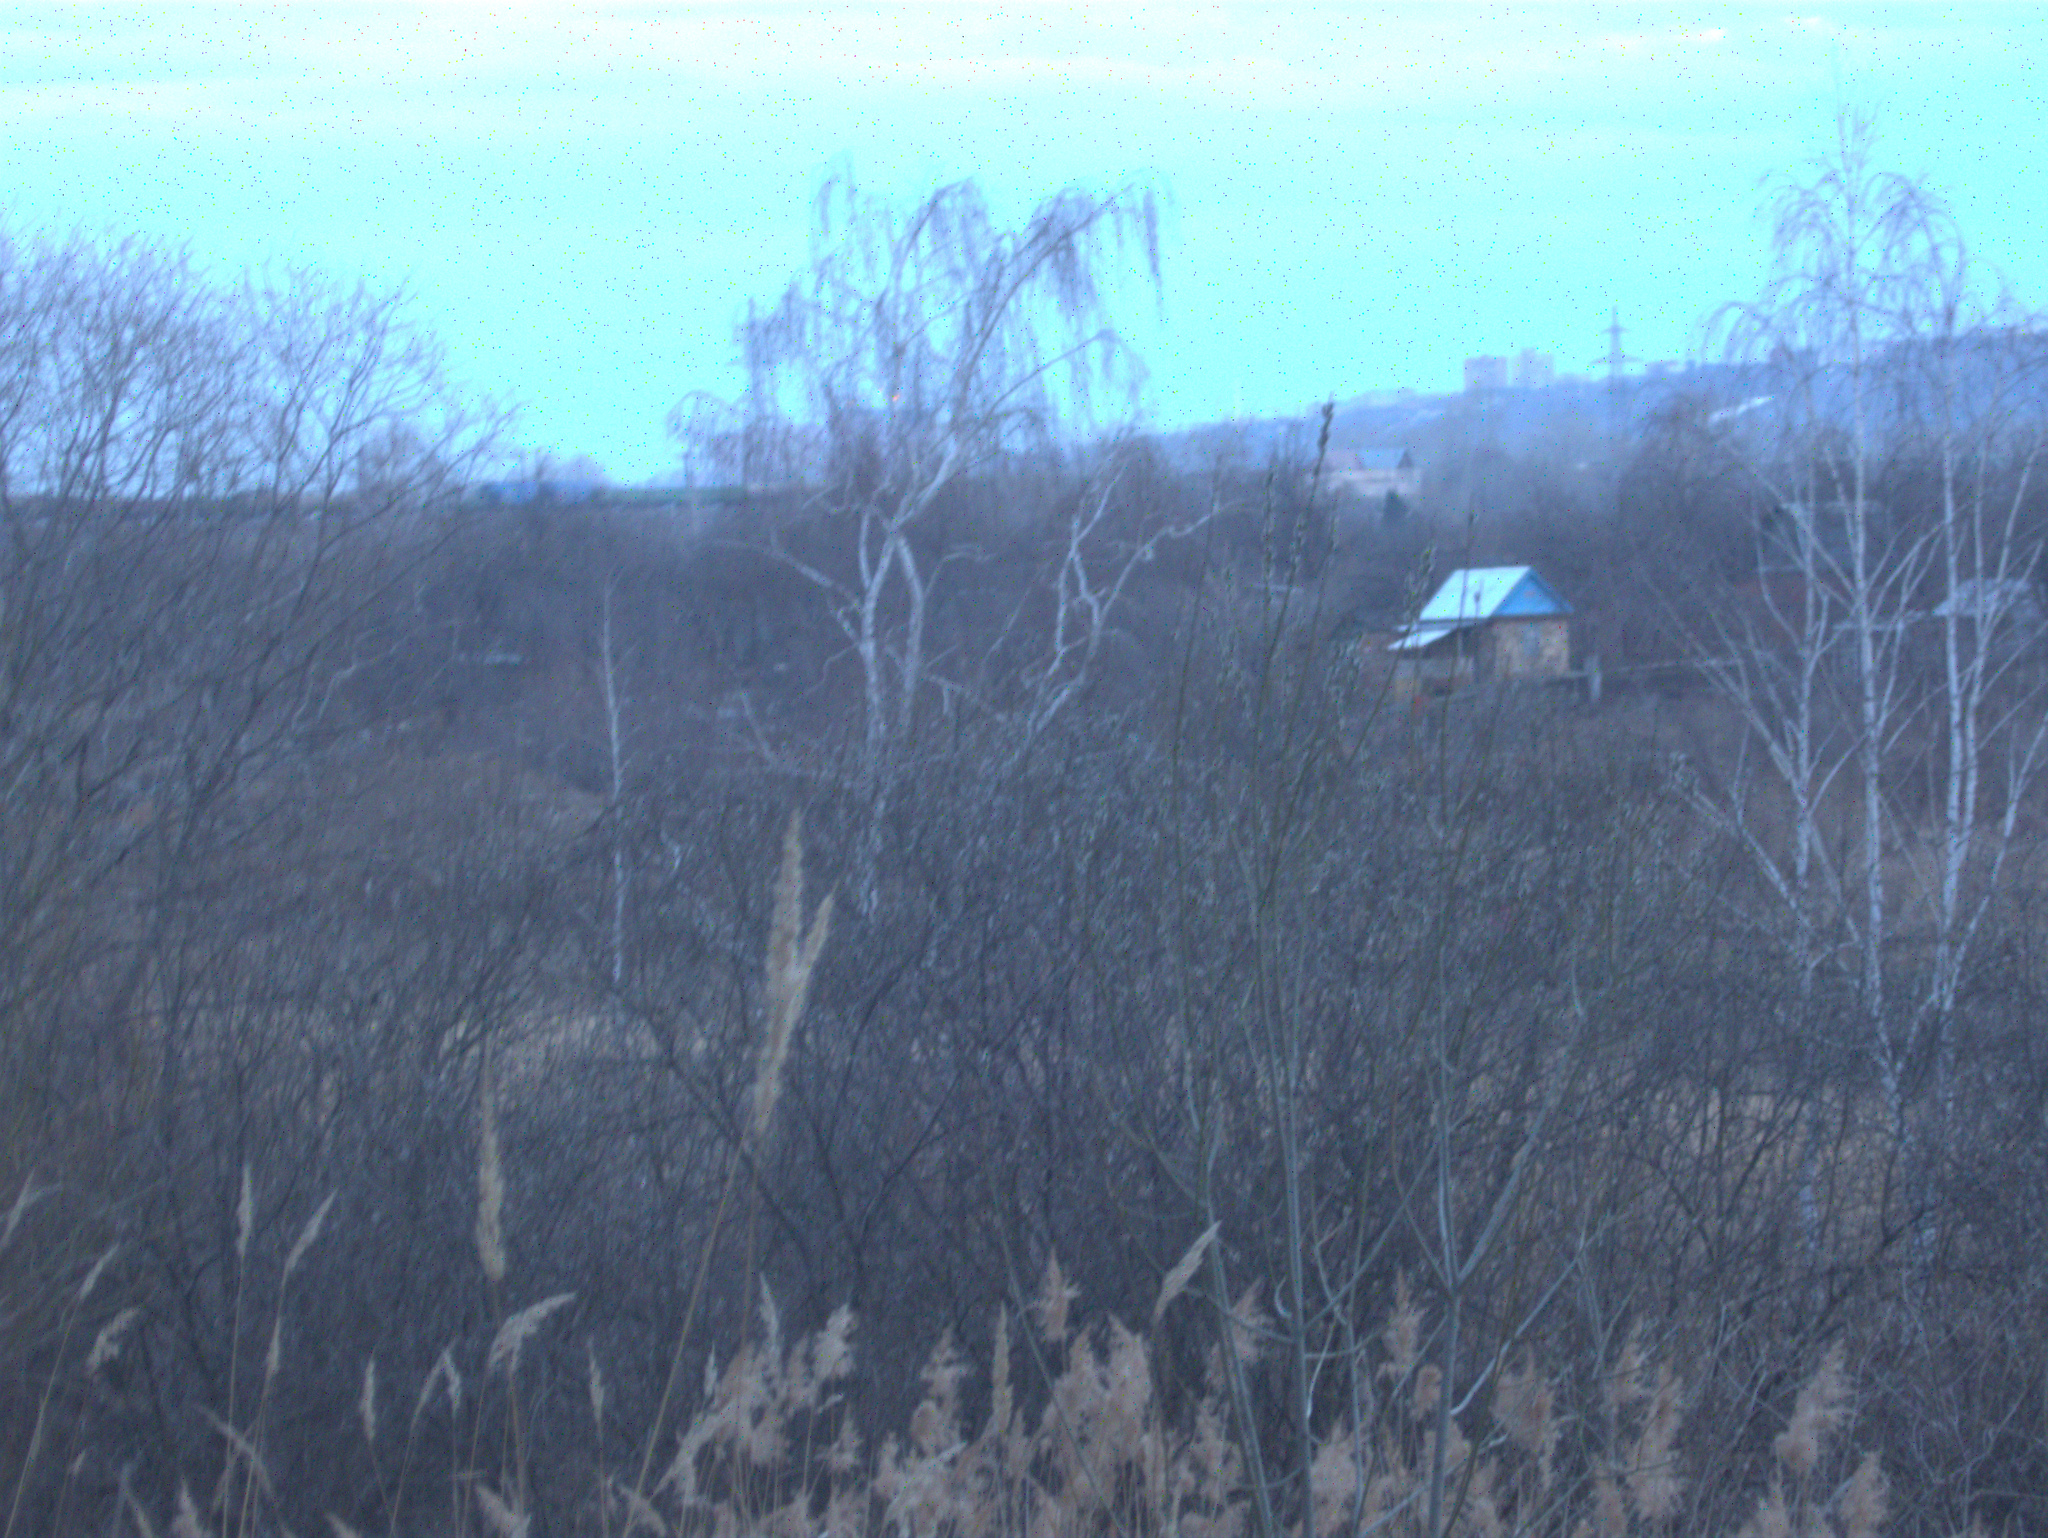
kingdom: Plantae
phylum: Tracheophyta
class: Liliopsida
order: Poales
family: Poaceae
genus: Calamagrostis
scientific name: Calamagrostis epigejos
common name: Wood small-reed
